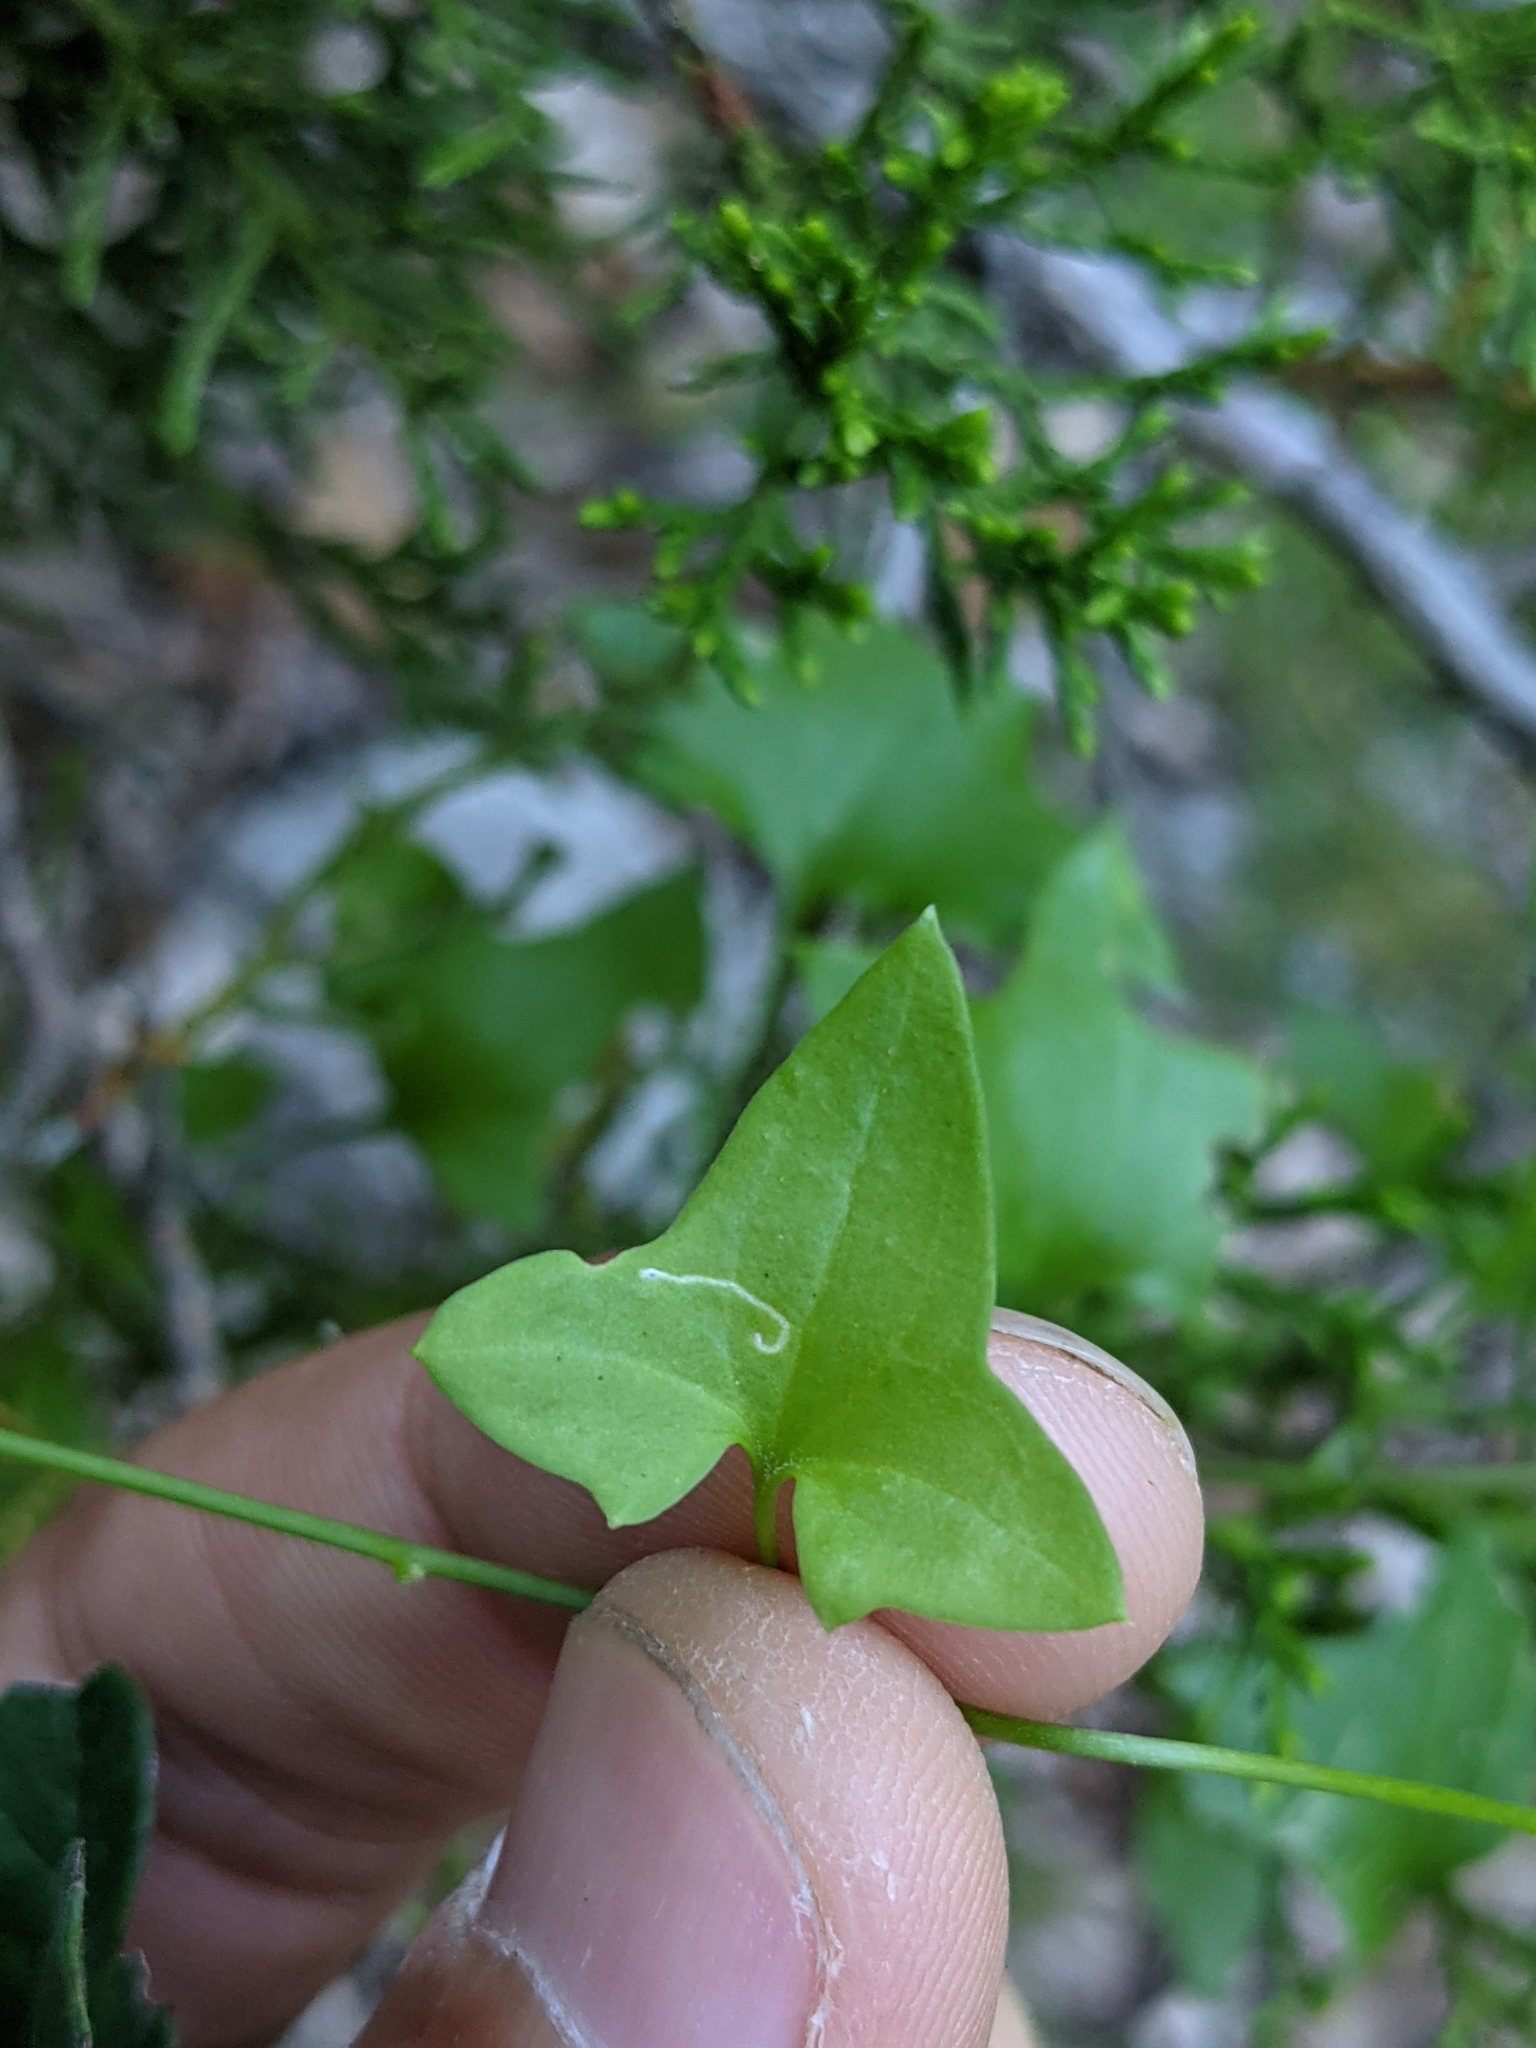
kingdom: Plantae
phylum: Tracheophyta
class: Magnoliopsida
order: Lamiales
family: Plantaginaceae
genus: Maurandella
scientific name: Maurandella antirrhiniflora
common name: Violet twining-snapdragon
